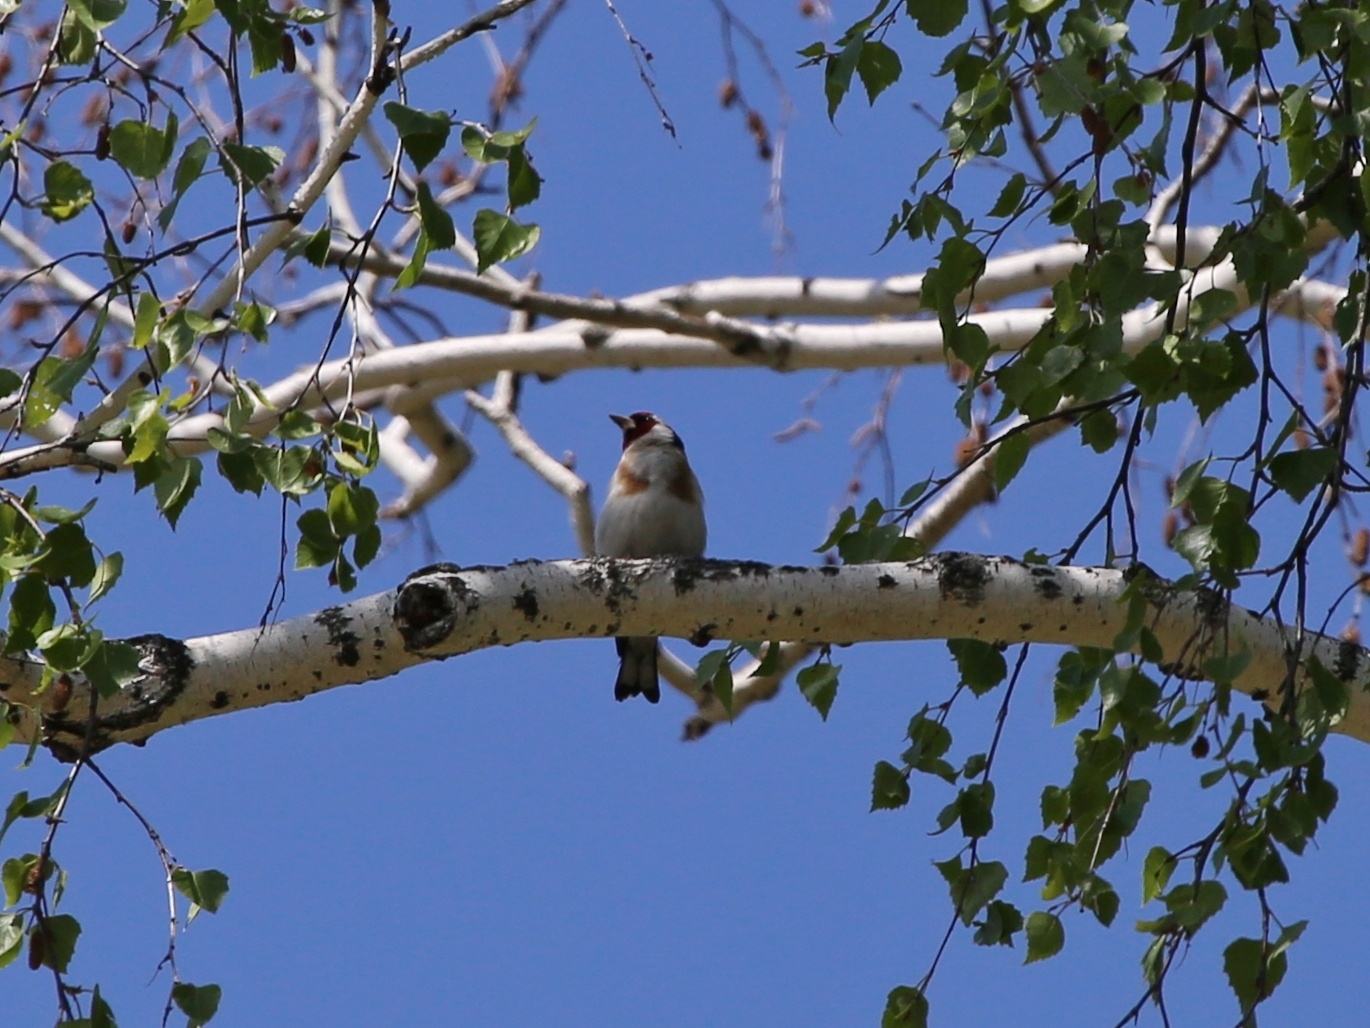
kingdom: Animalia
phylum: Chordata
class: Aves
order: Passeriformes
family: Fringillidae
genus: Carduelis
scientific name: Carduelis carduelis
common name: European goldfinch
